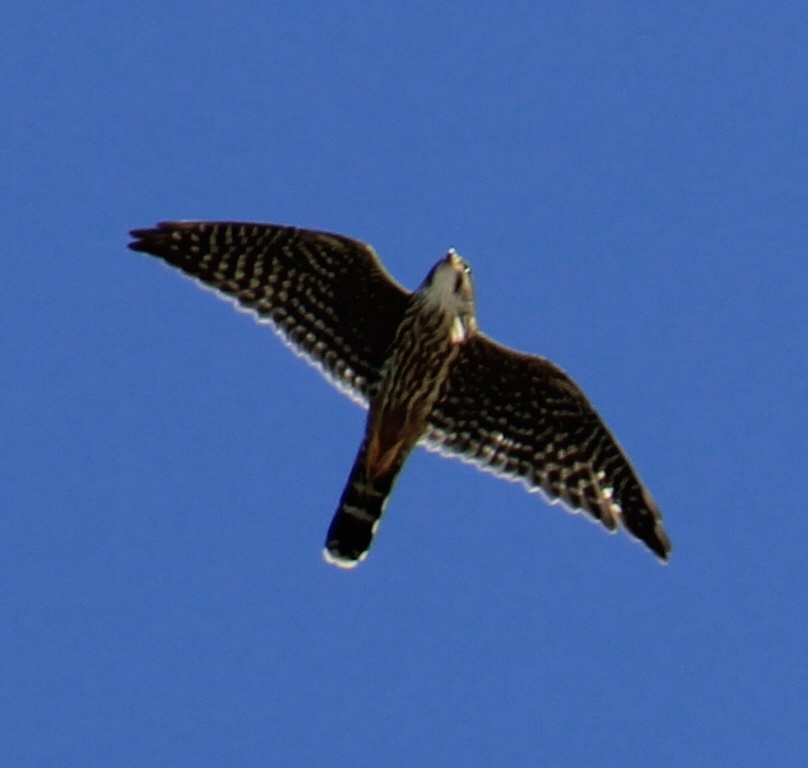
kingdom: Animalia
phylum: Chordata
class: Aves
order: Falconiformes
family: Falconidae
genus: Falco
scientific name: Falco columbarius
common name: Merlin
